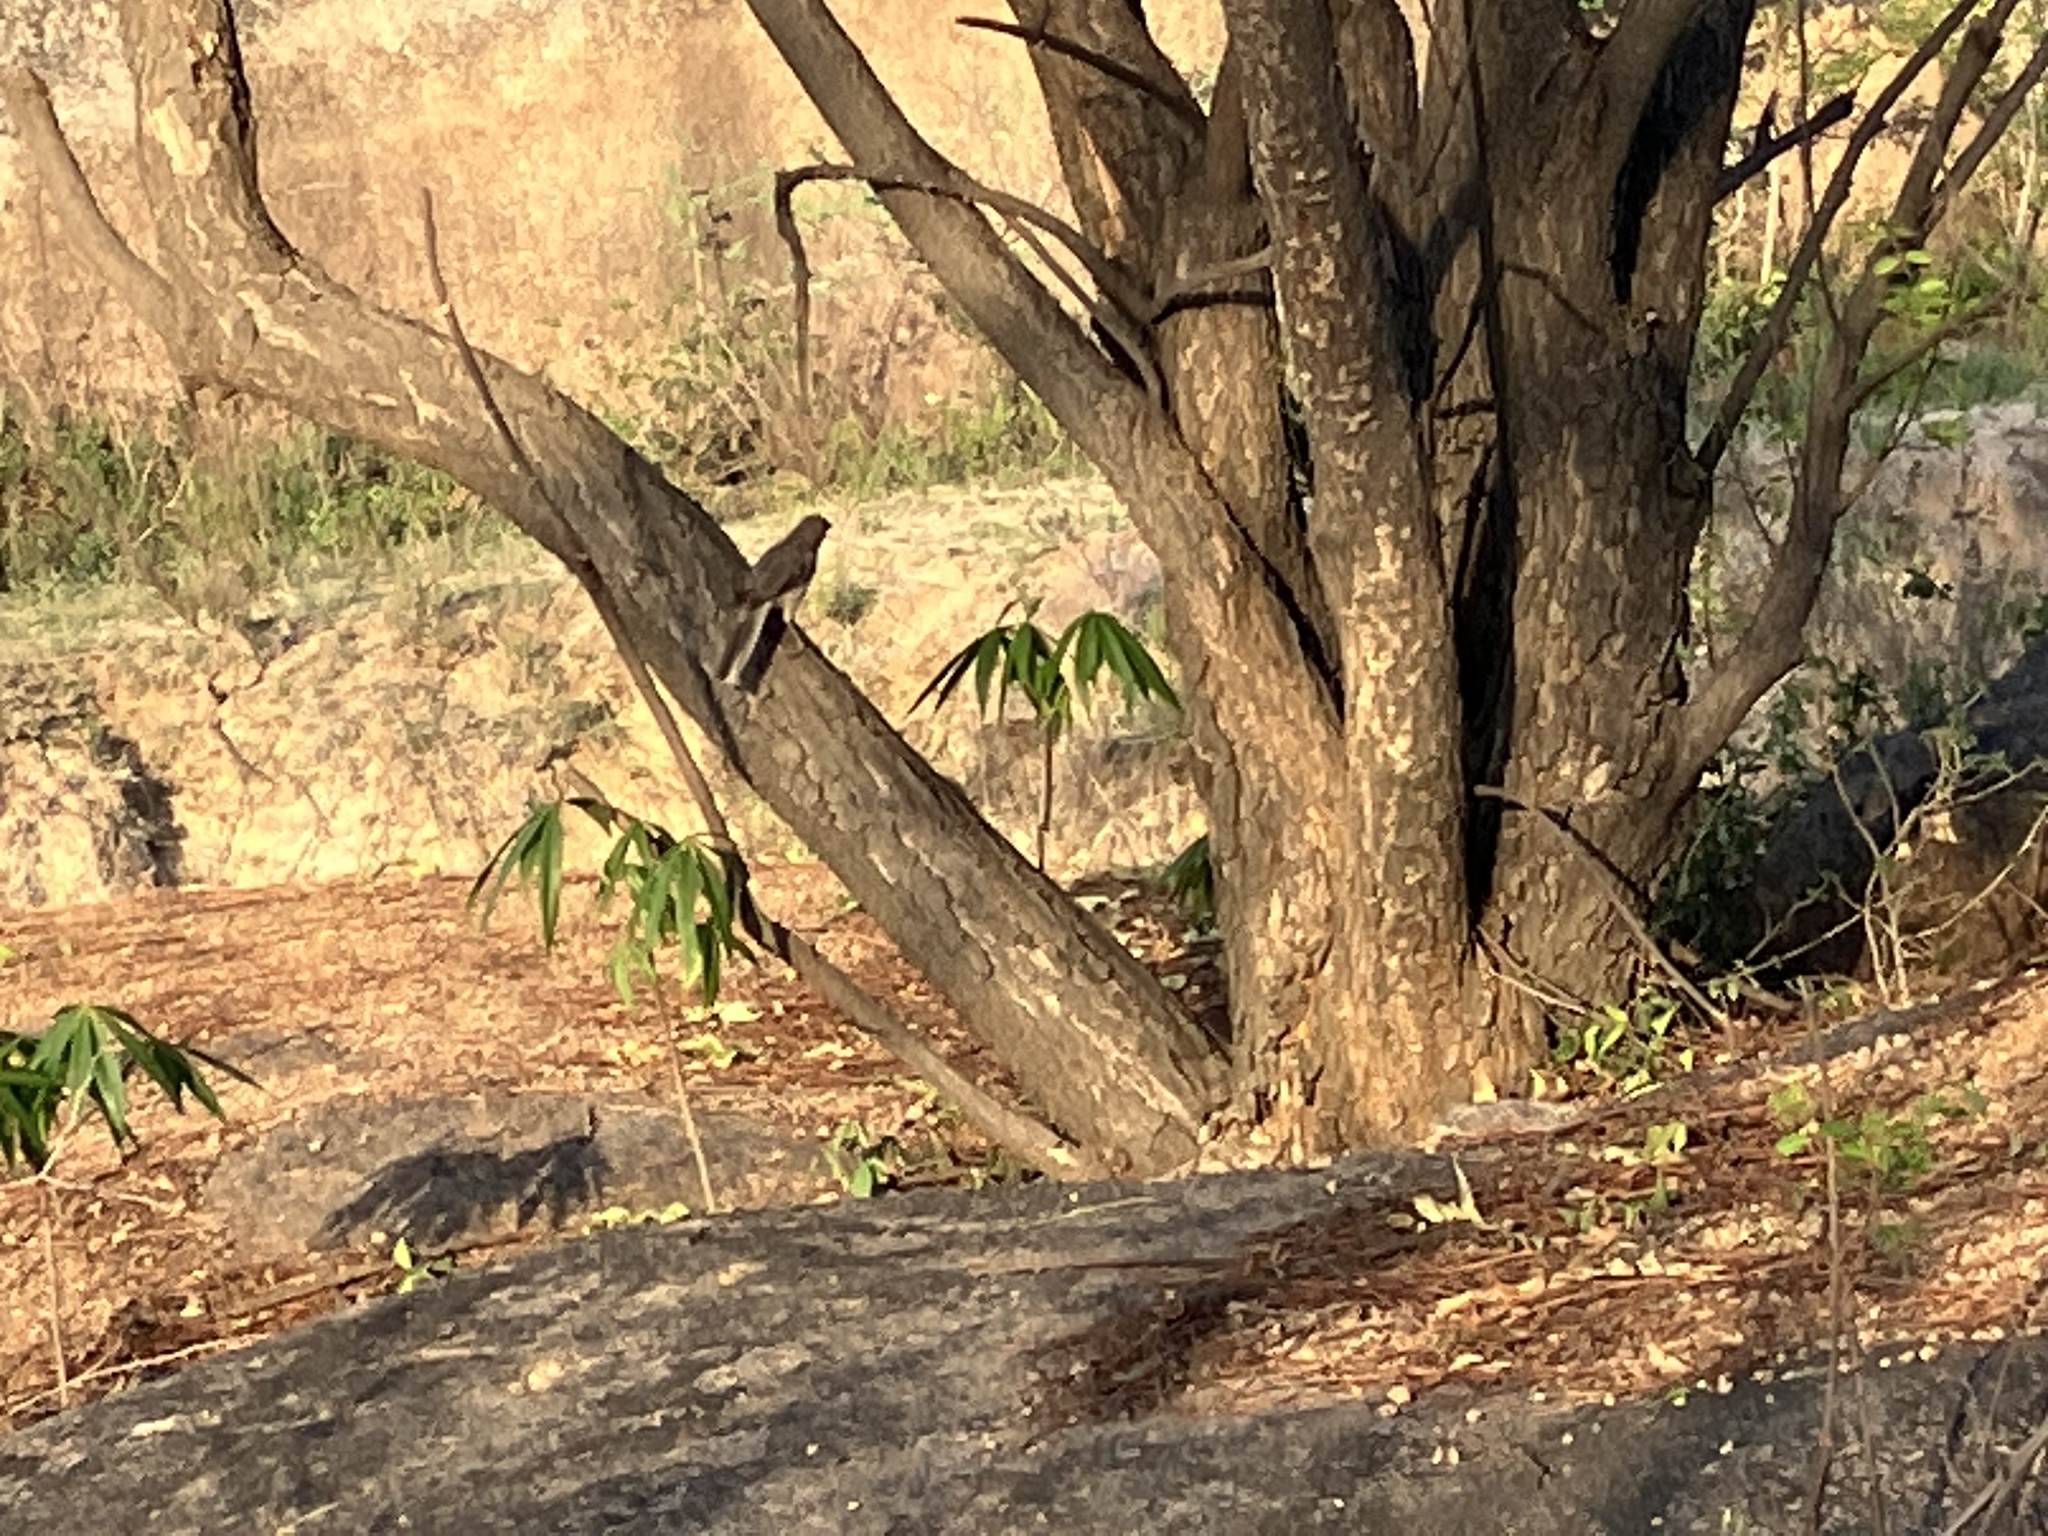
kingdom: Animalia
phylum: Chordata
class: Aves
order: Passeriformes
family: Leiothrichidae
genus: Turdoides
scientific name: Turdoides malcolmi
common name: Large grey babbler
